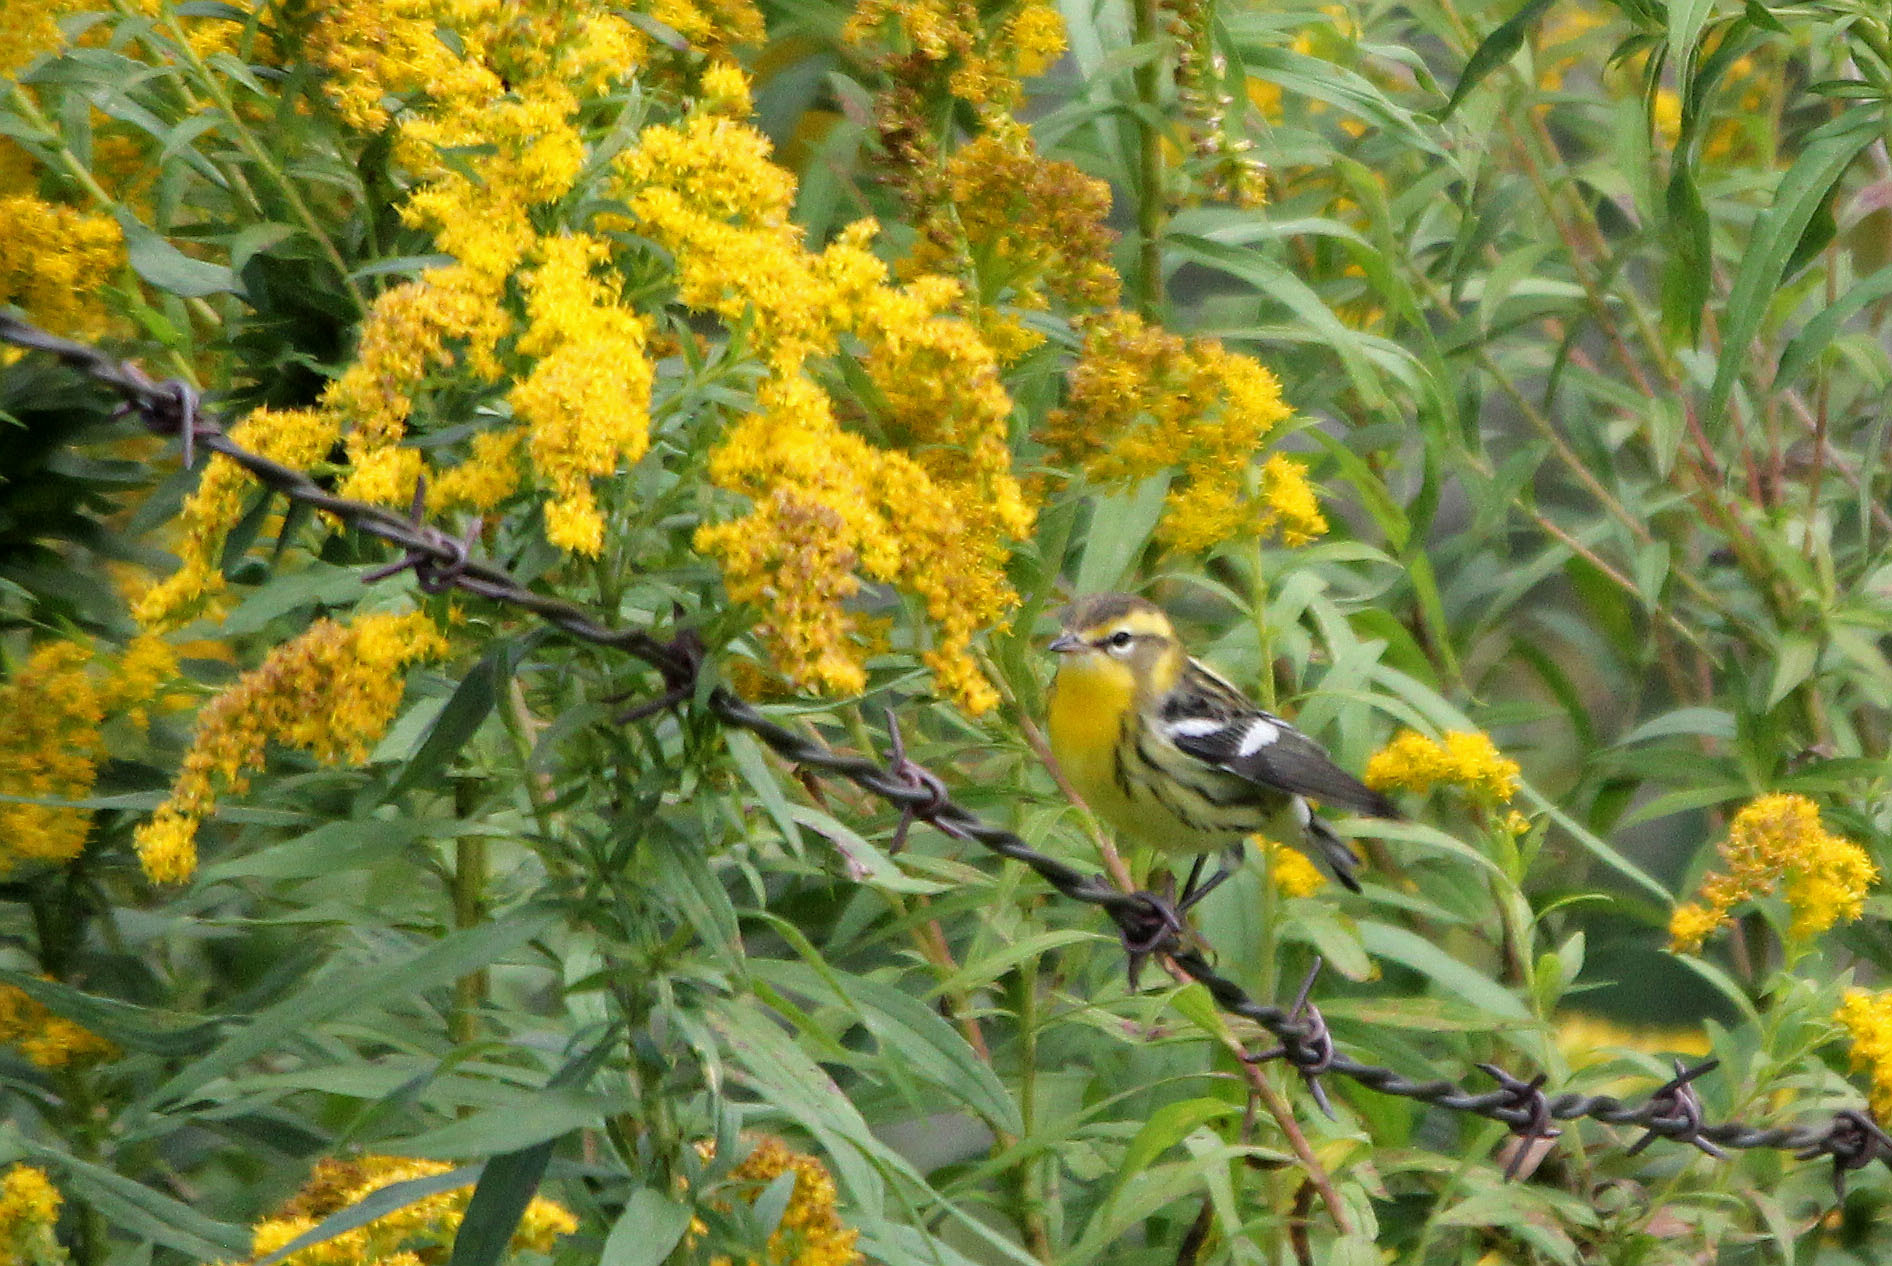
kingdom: Animalia
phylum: Chordata
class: Aves
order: Passeriformes
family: Parulidae
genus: Setophaga
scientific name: Setophaga fusca
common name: Blackburnian warbler
